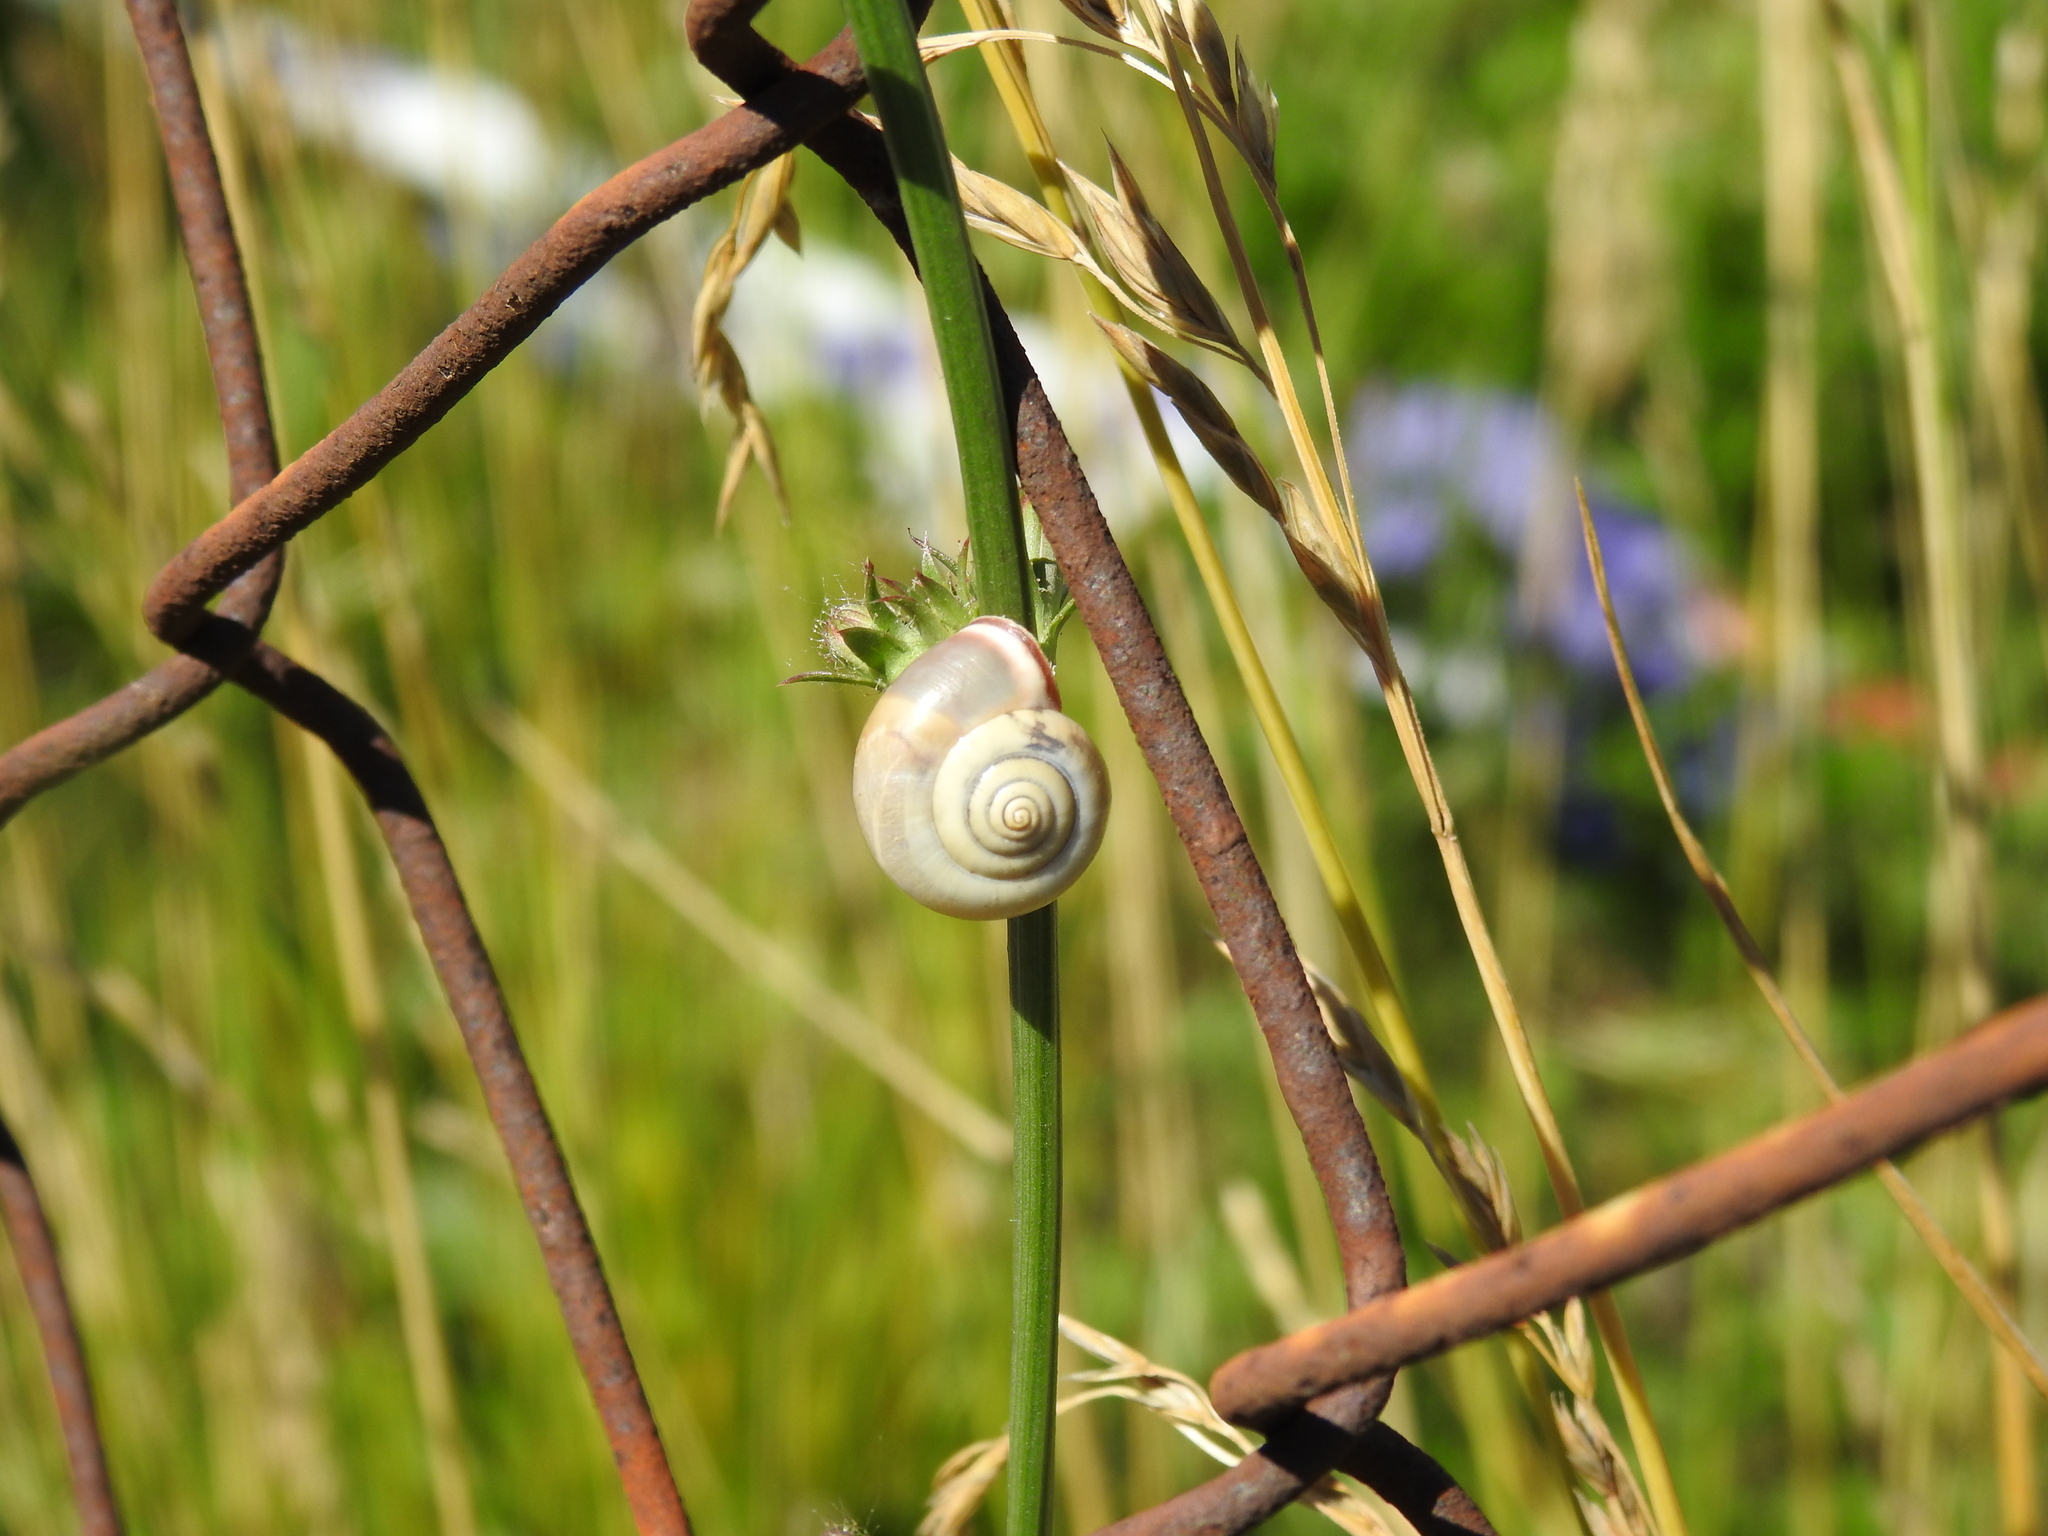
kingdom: Animalia
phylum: Mollusca
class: Gastropoda
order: Stylommatophora
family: Hygromiidae
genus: Monacha
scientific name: Monacha cartusiana
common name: Carthusian snail
